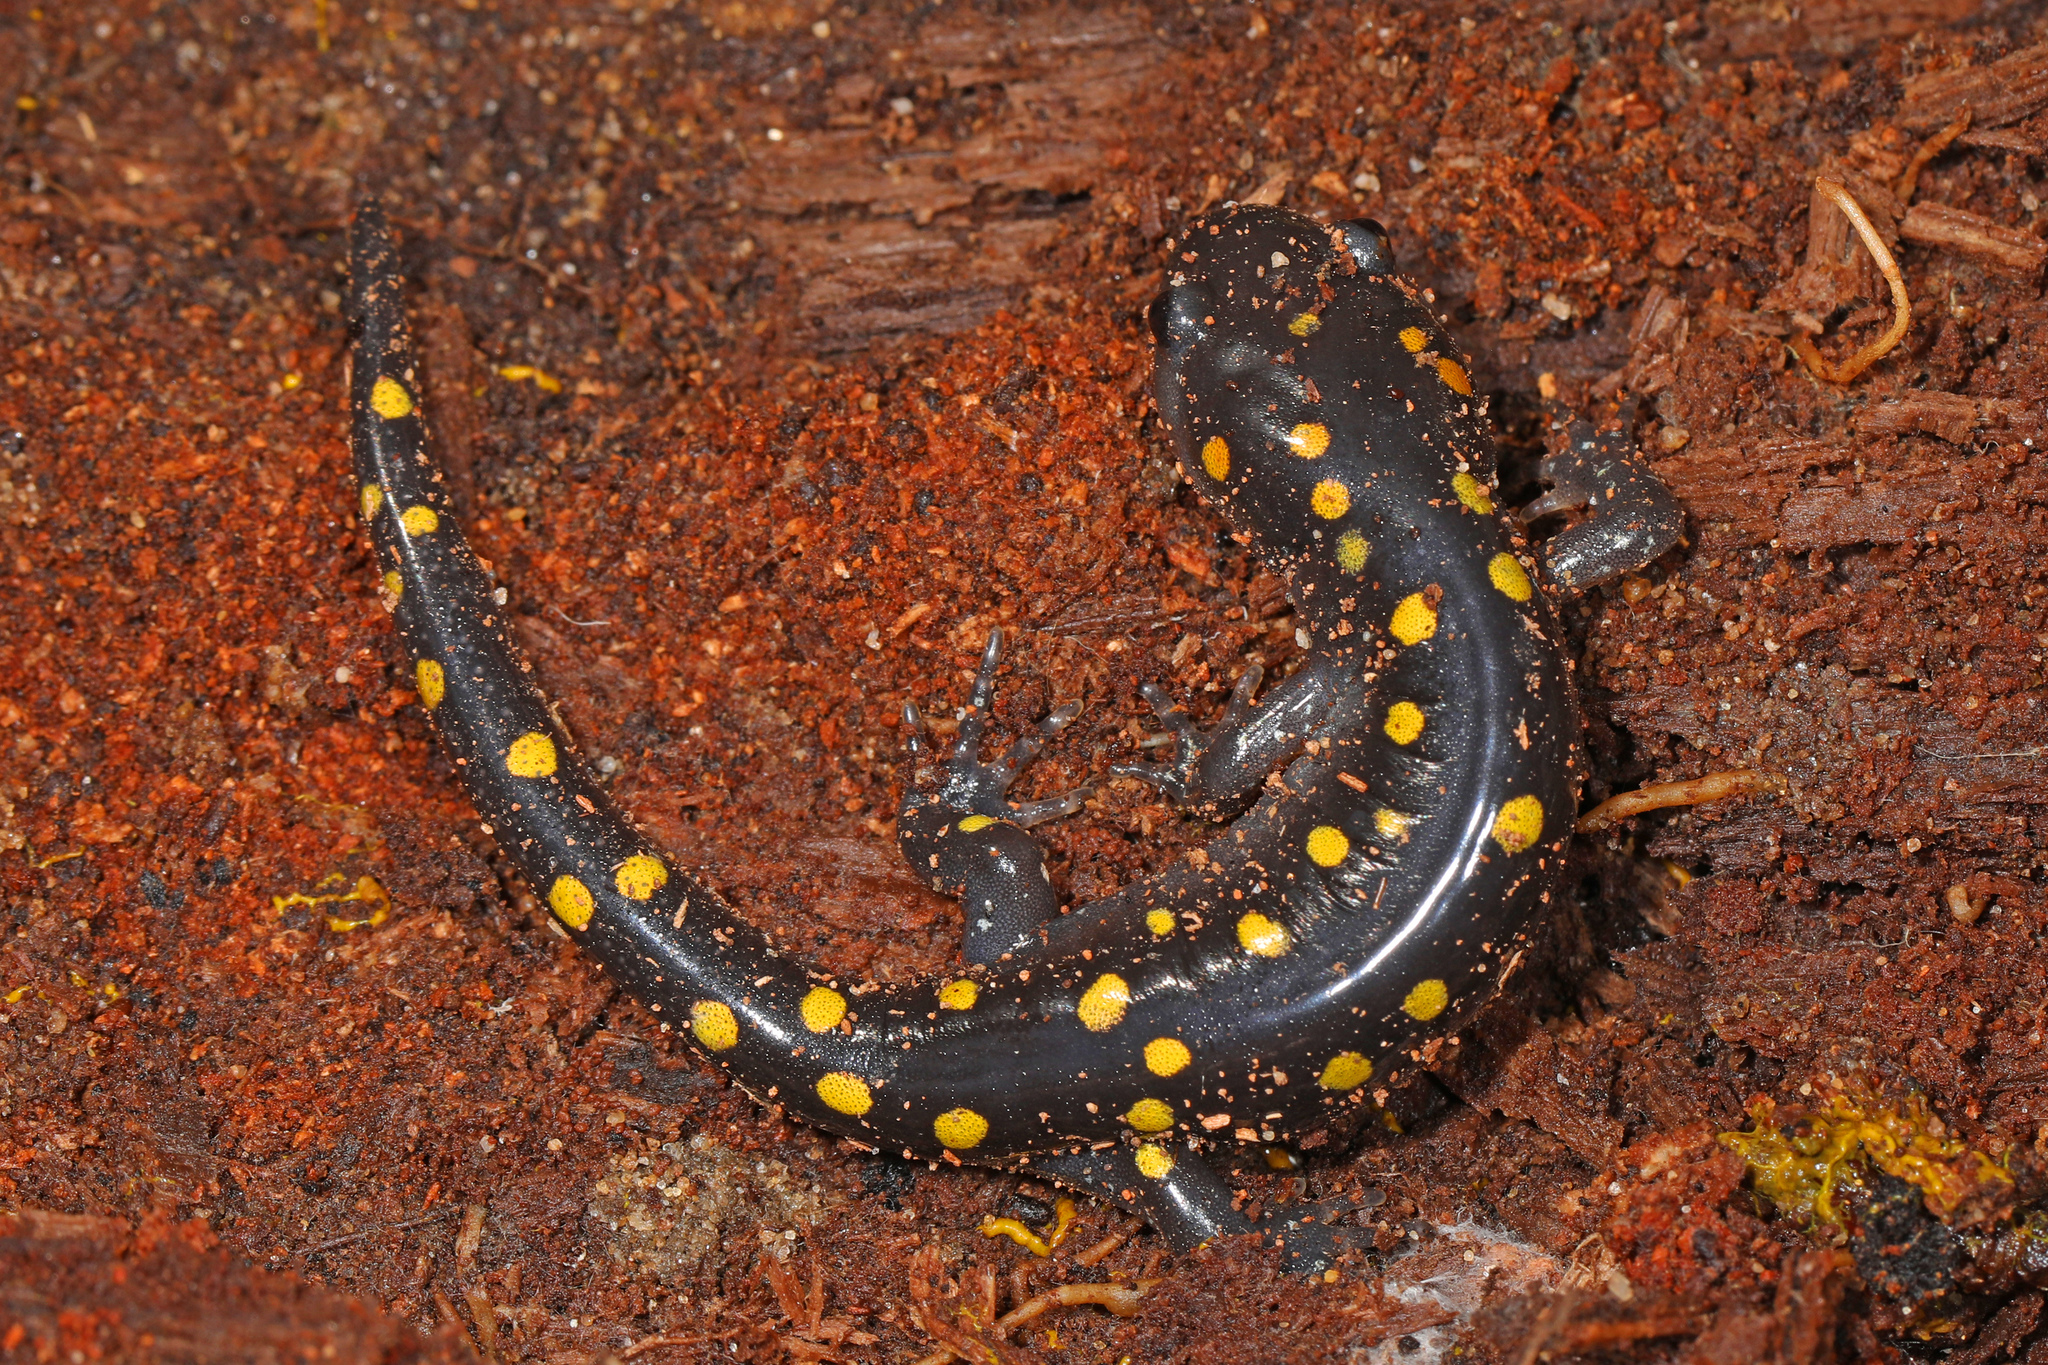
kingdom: Animalia
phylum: Chordata
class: Amphibia
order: Caudata
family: Ambystomatidae
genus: Ambystoma
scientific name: Ambystoma maculatum
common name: Spotted salamander
